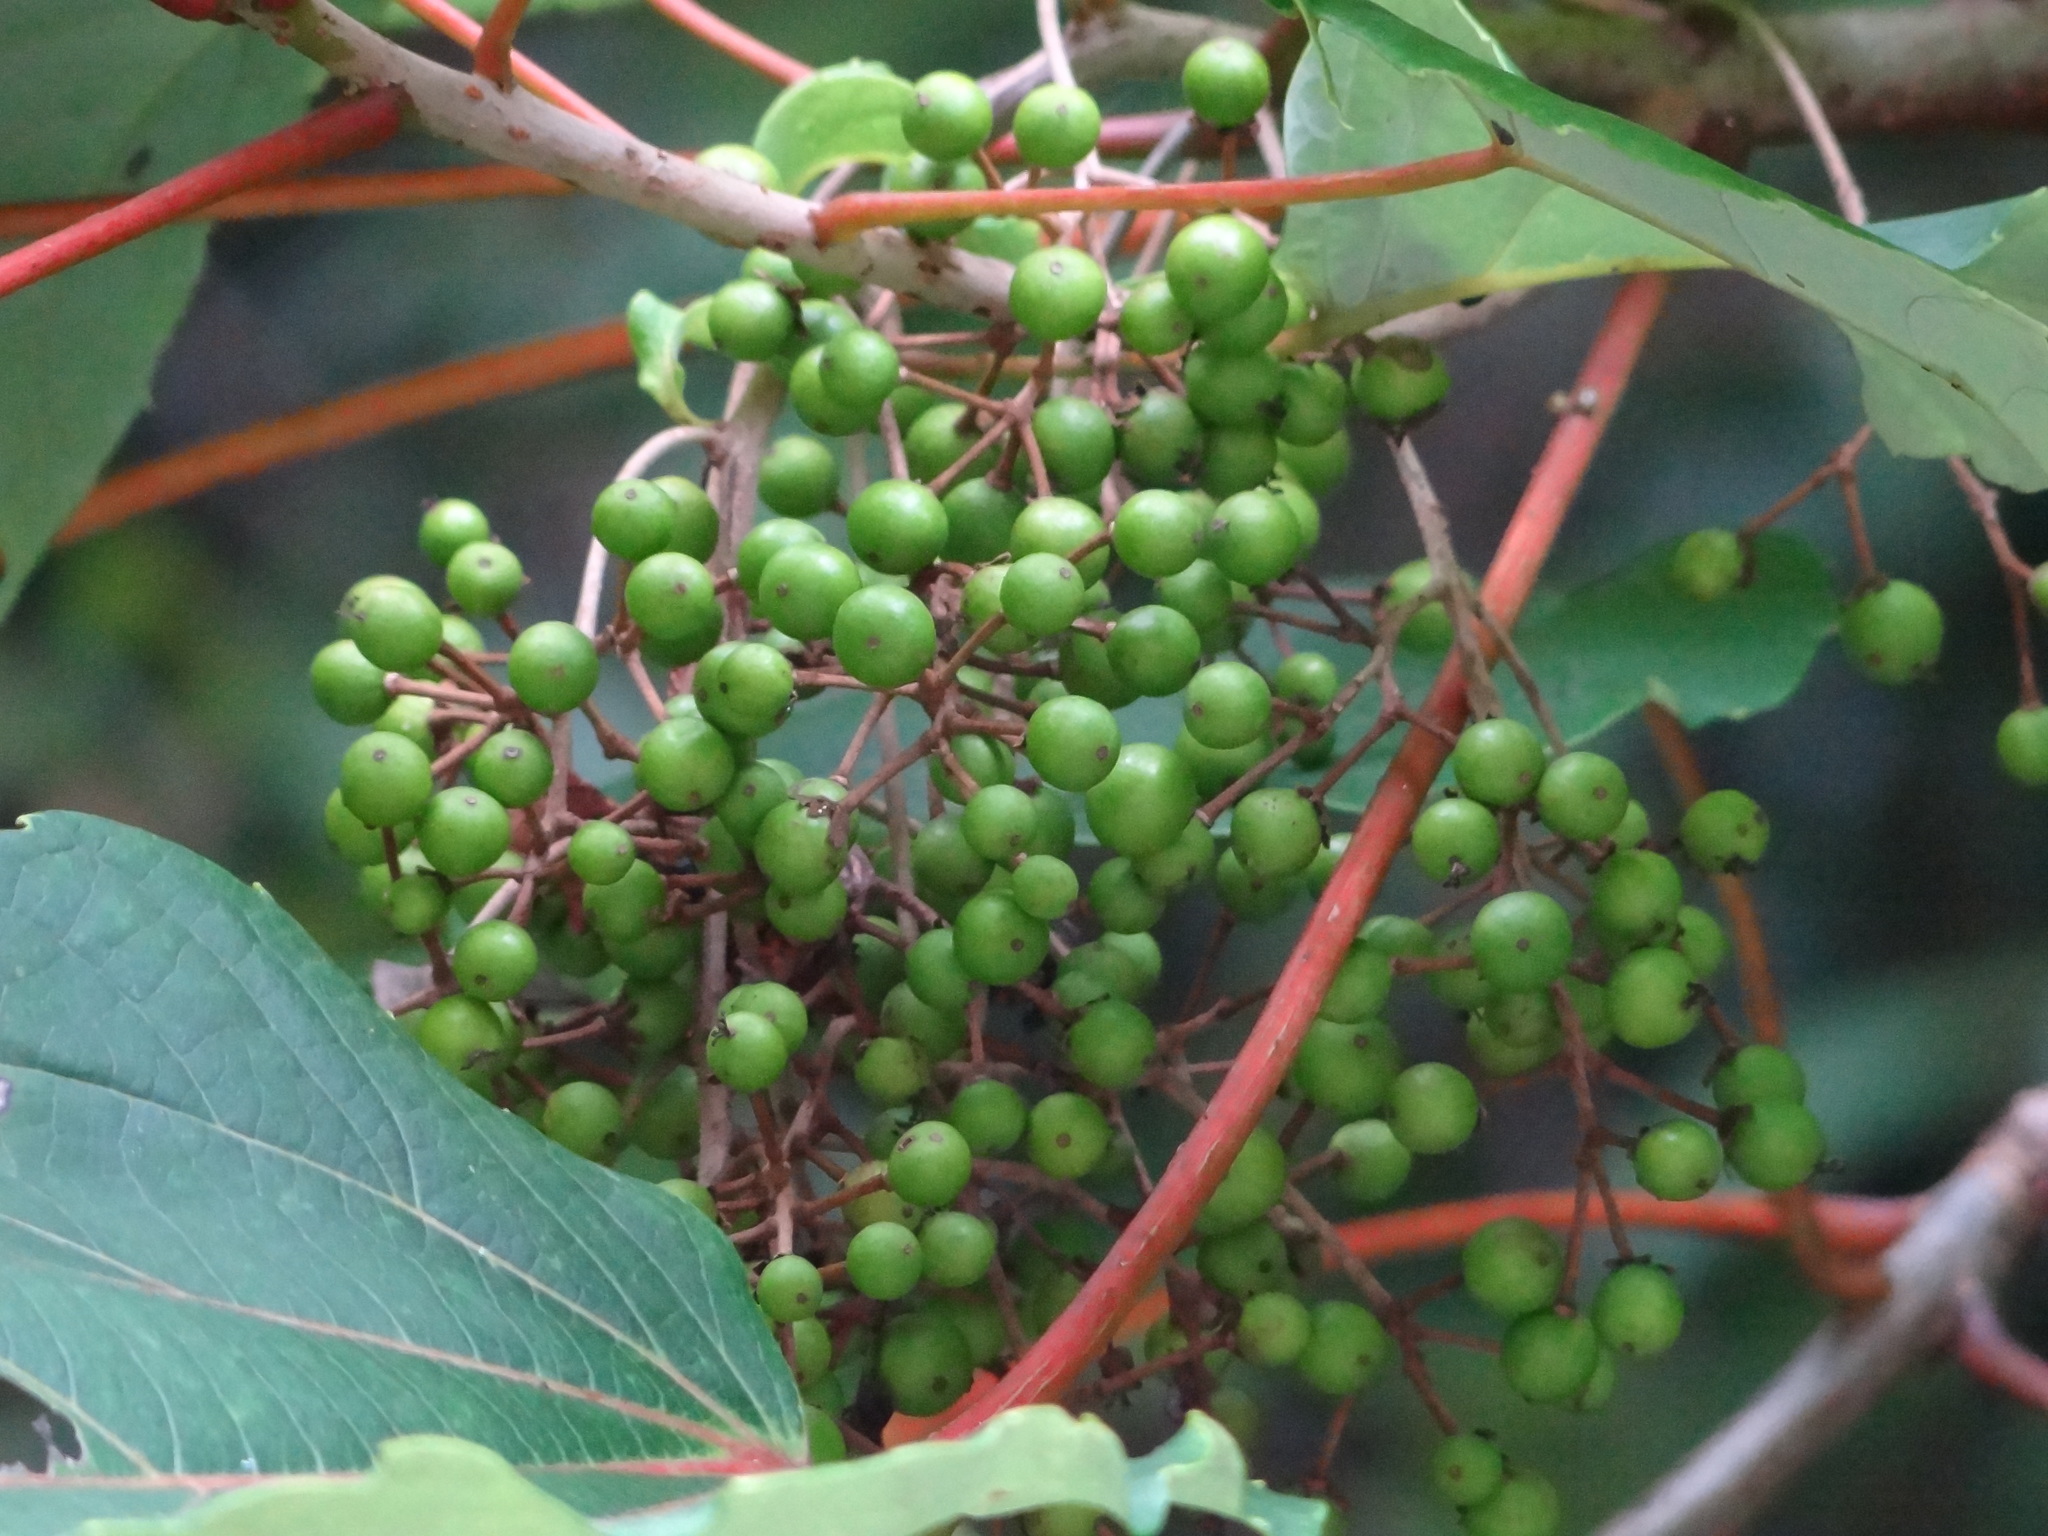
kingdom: Plantae
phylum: Tracheophyta
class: Magnoliopsida
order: Malpighiales
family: Salicaceae
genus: Idesia
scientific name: Idesia polycarpa
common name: Idesia tree
